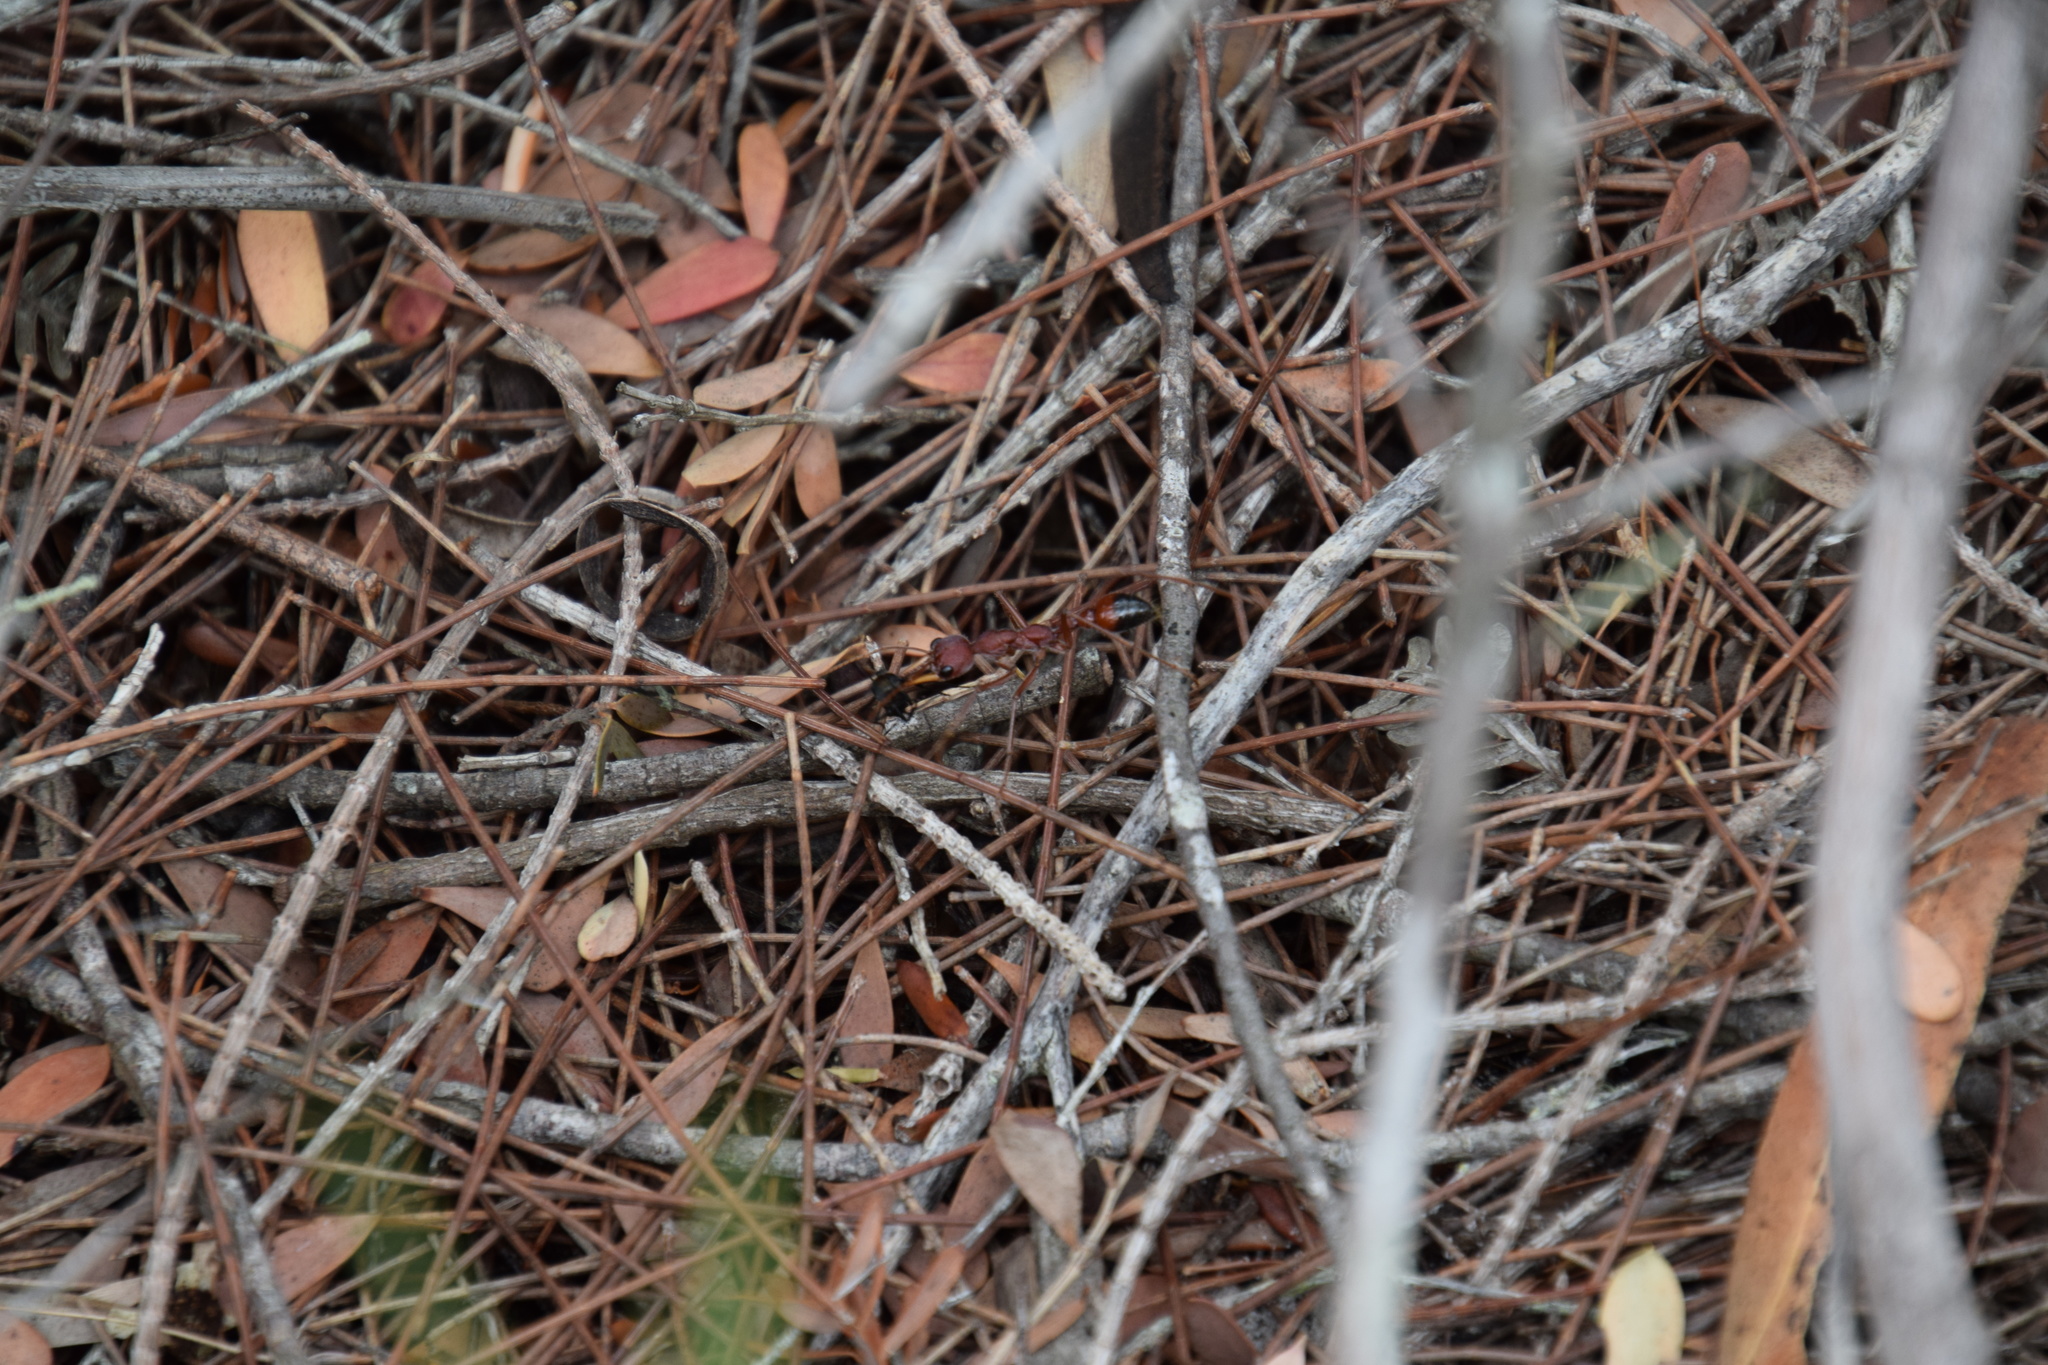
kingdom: Animalia
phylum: Arthropoda
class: Insecta
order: Hymenoptera
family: Formicidae
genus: Myrmecia
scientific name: Myrmecia gulosa
